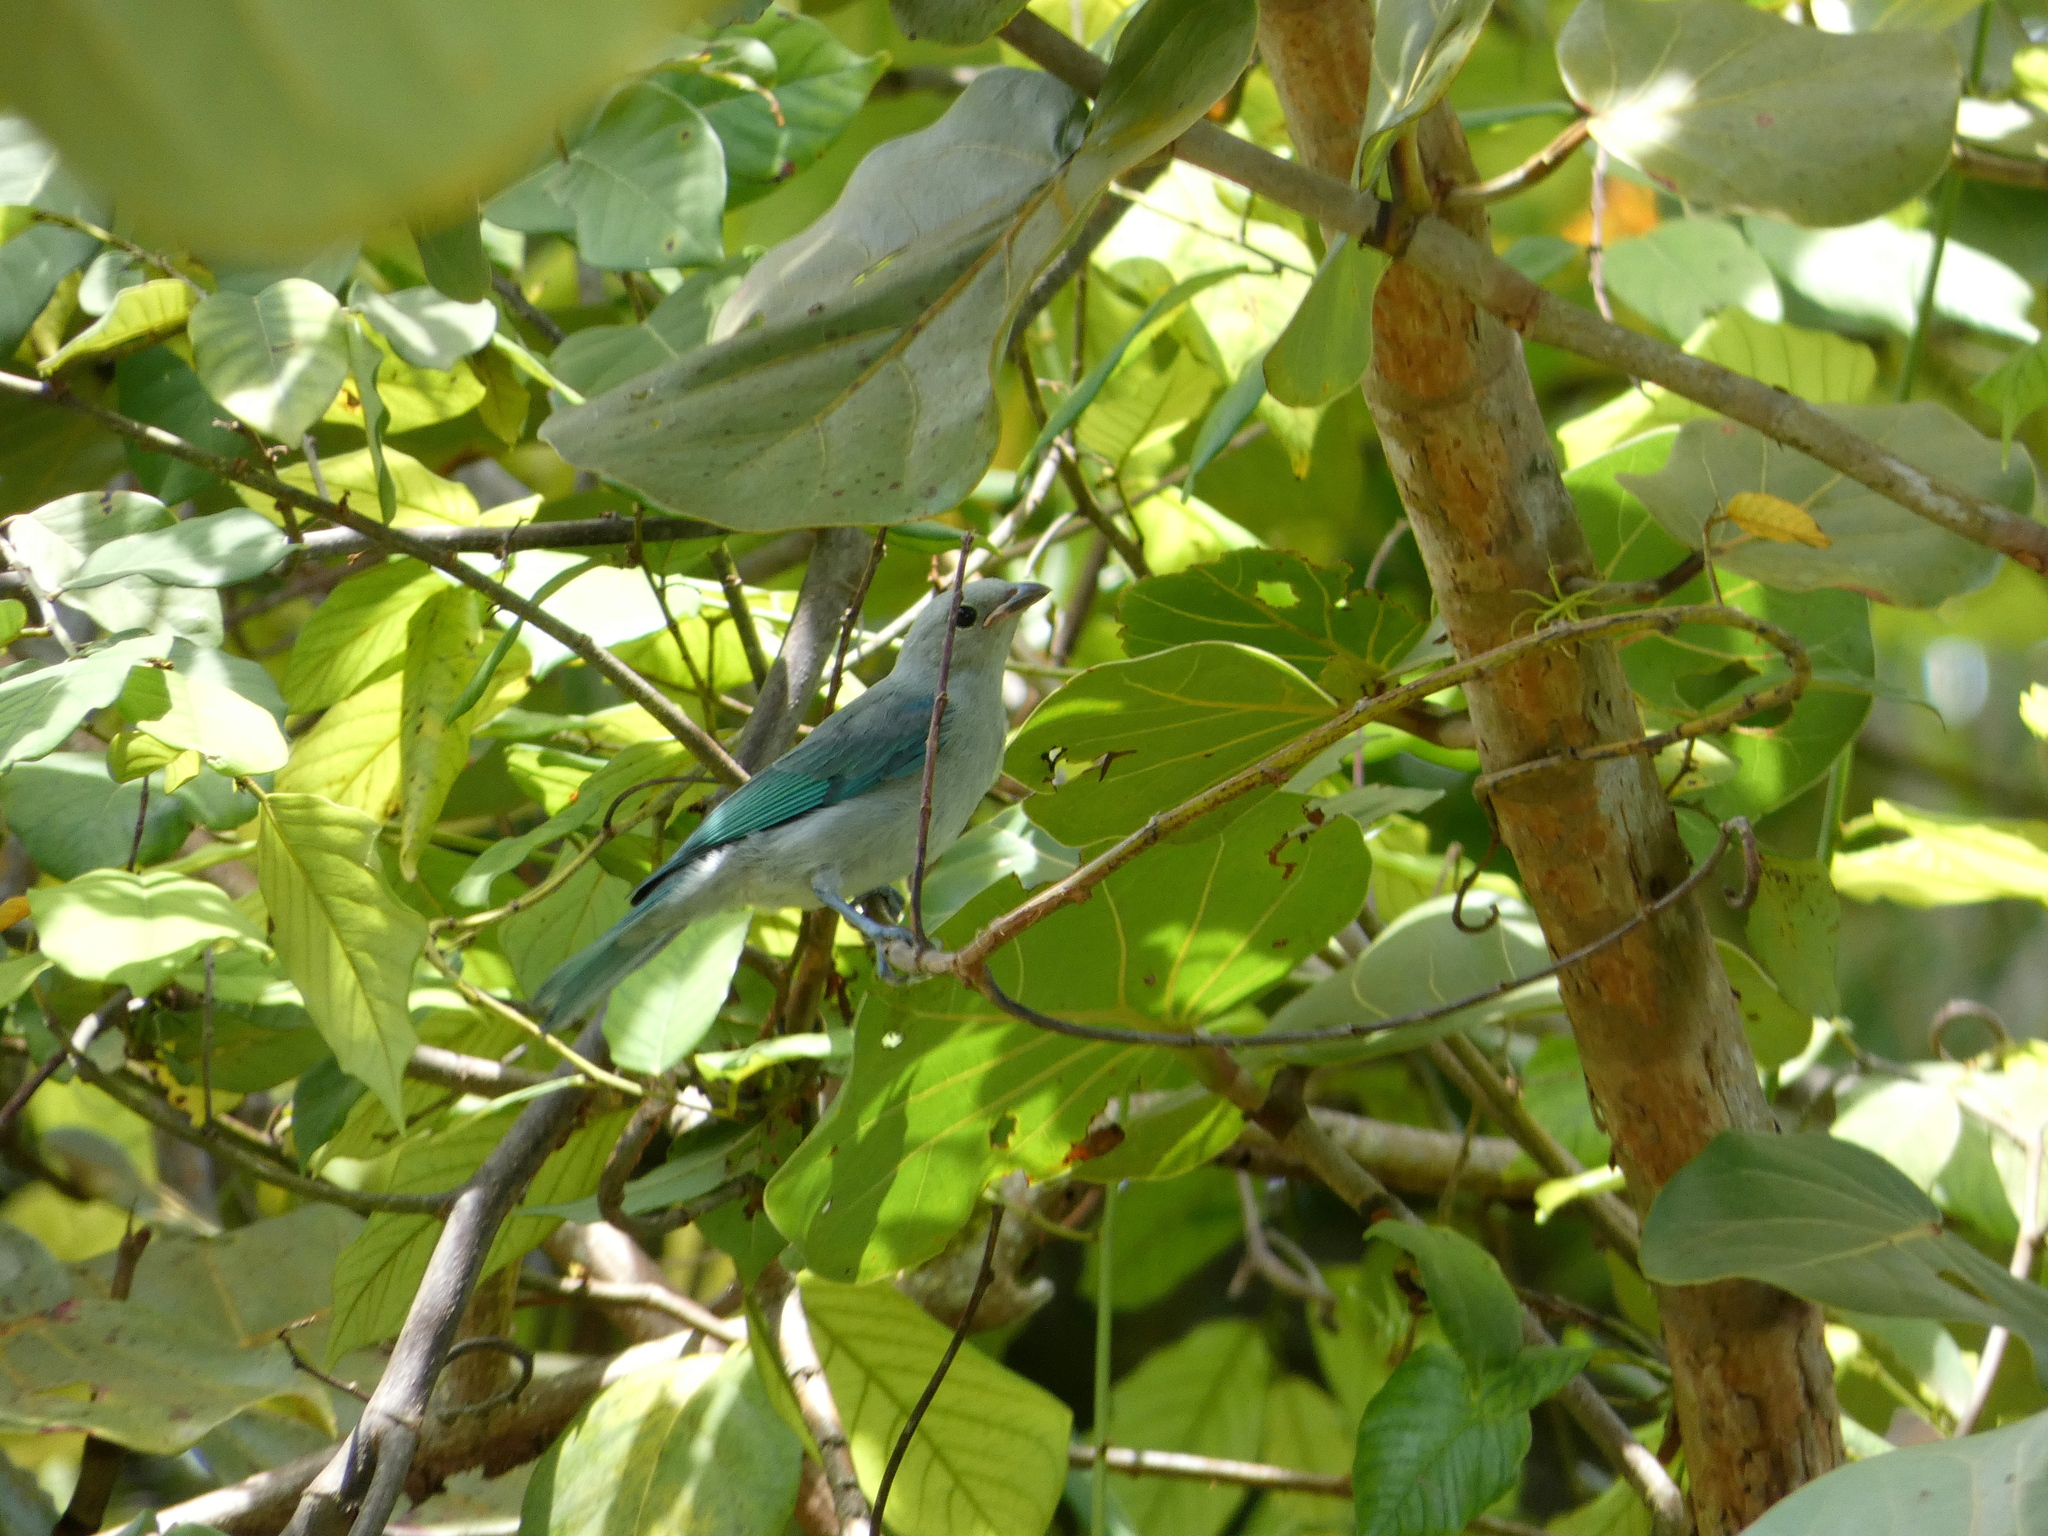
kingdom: Animalia
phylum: Chordata
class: Aves
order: Passeriformes
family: Thraupidae
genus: Thraupis
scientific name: Thraupis episcopus
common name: Blue-grey tanager
